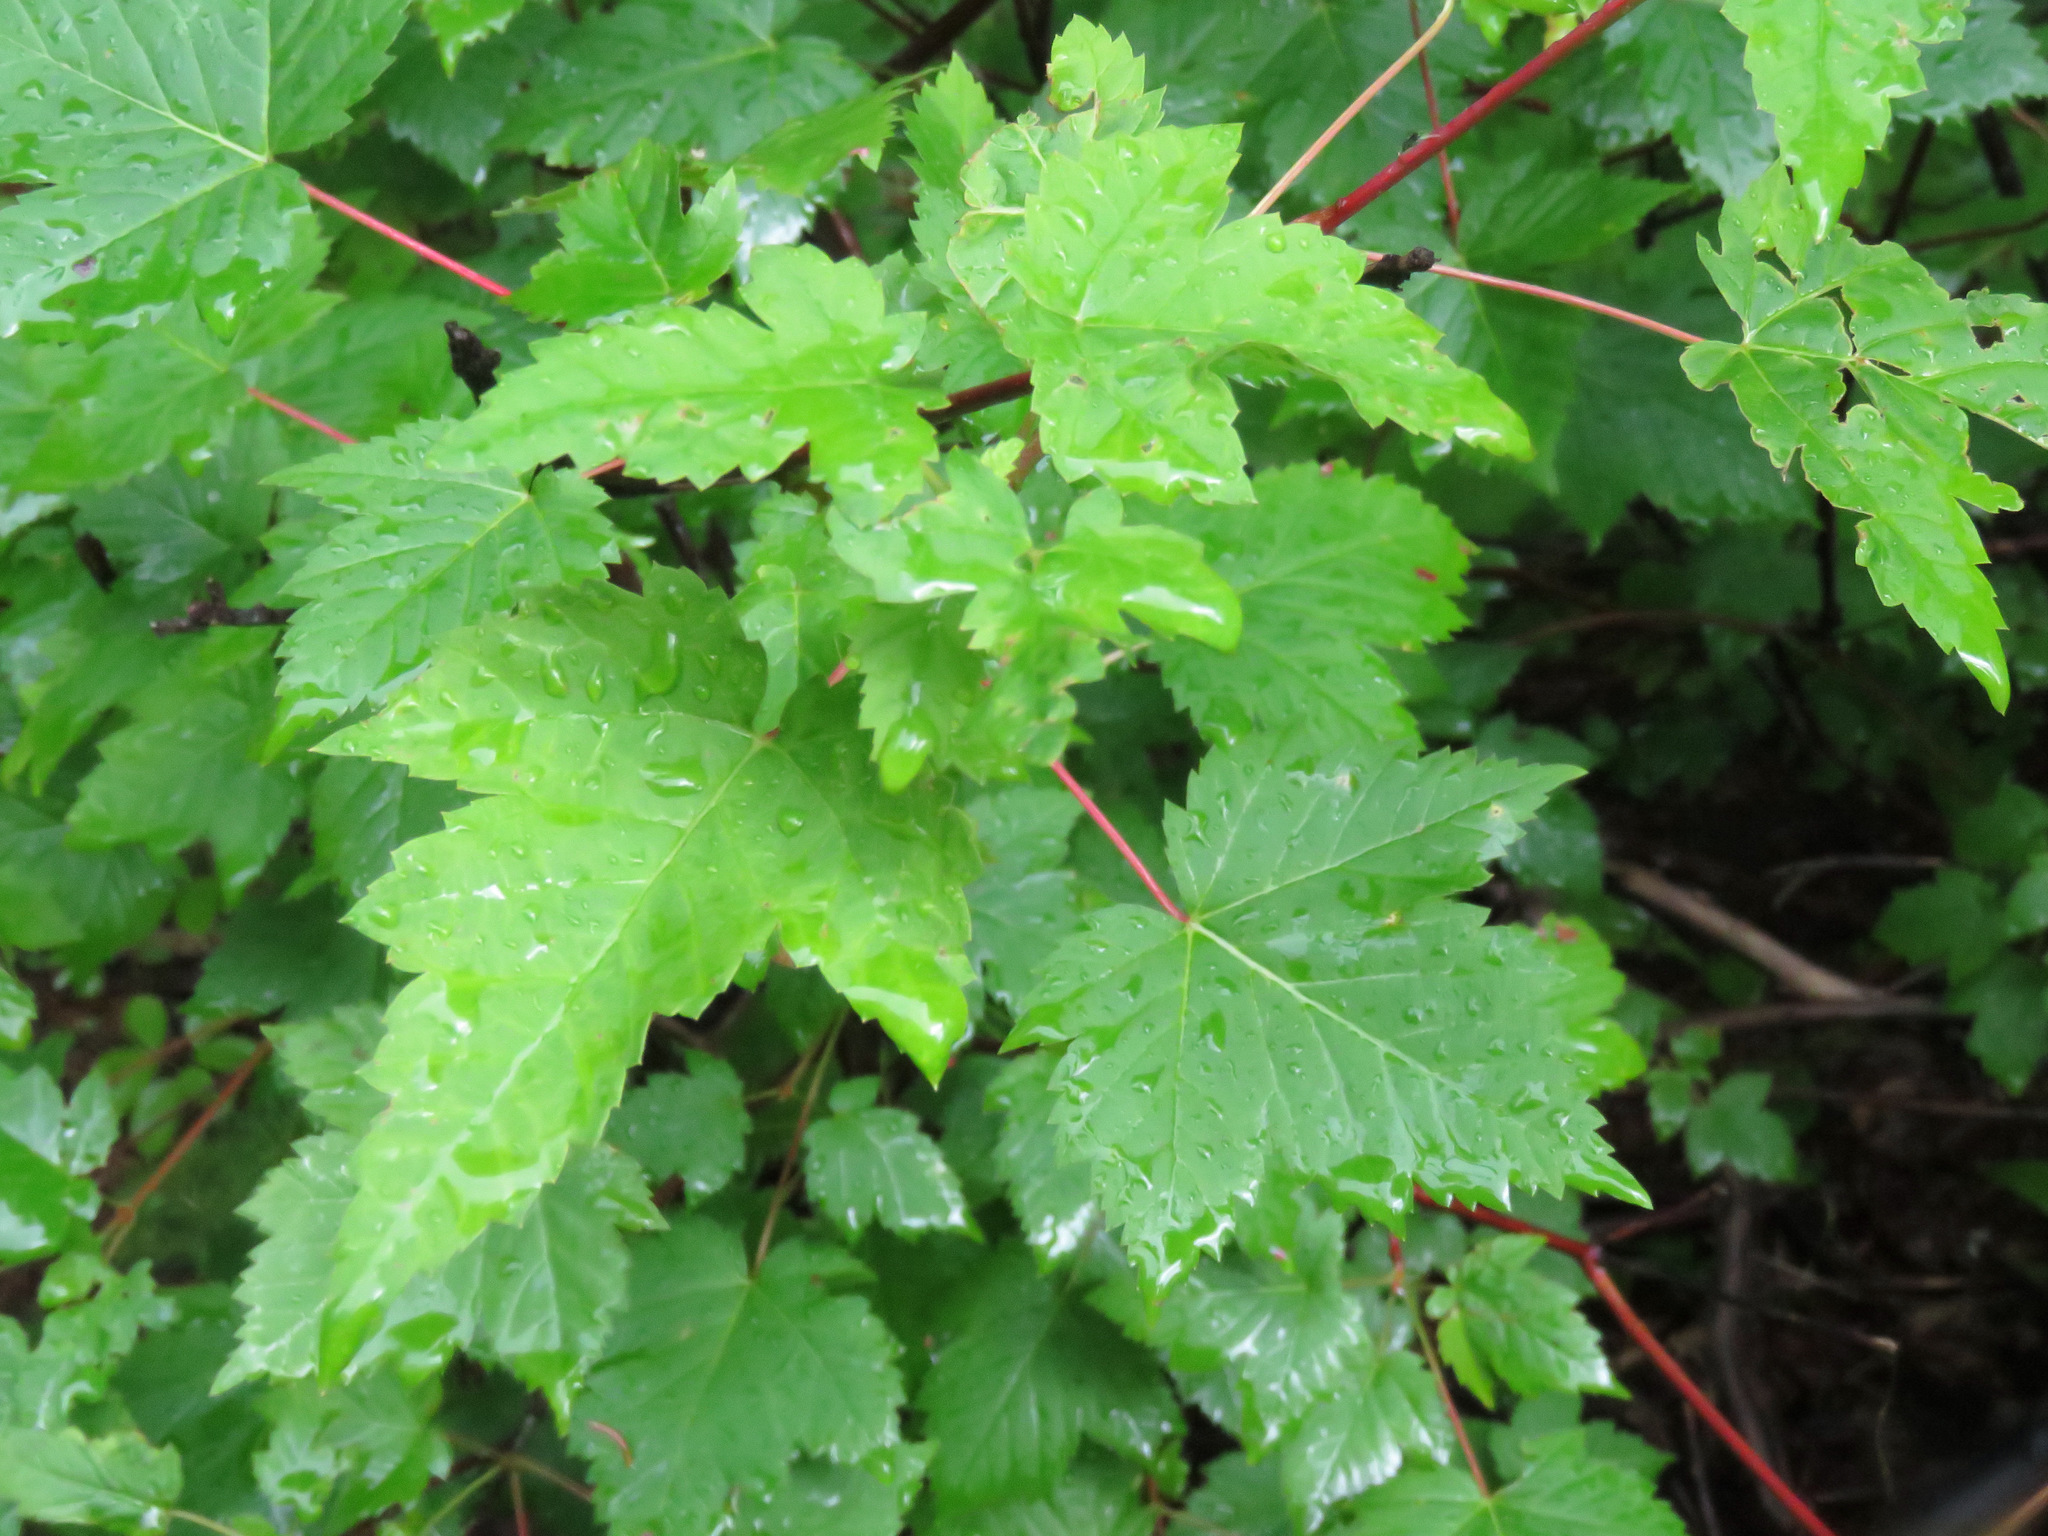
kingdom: Plantae
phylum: Tracheophyta
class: Magnoliopsida
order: Sapindales
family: Sapindaceae
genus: Acer
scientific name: Acer glabrum
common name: Rocky mountain maple
